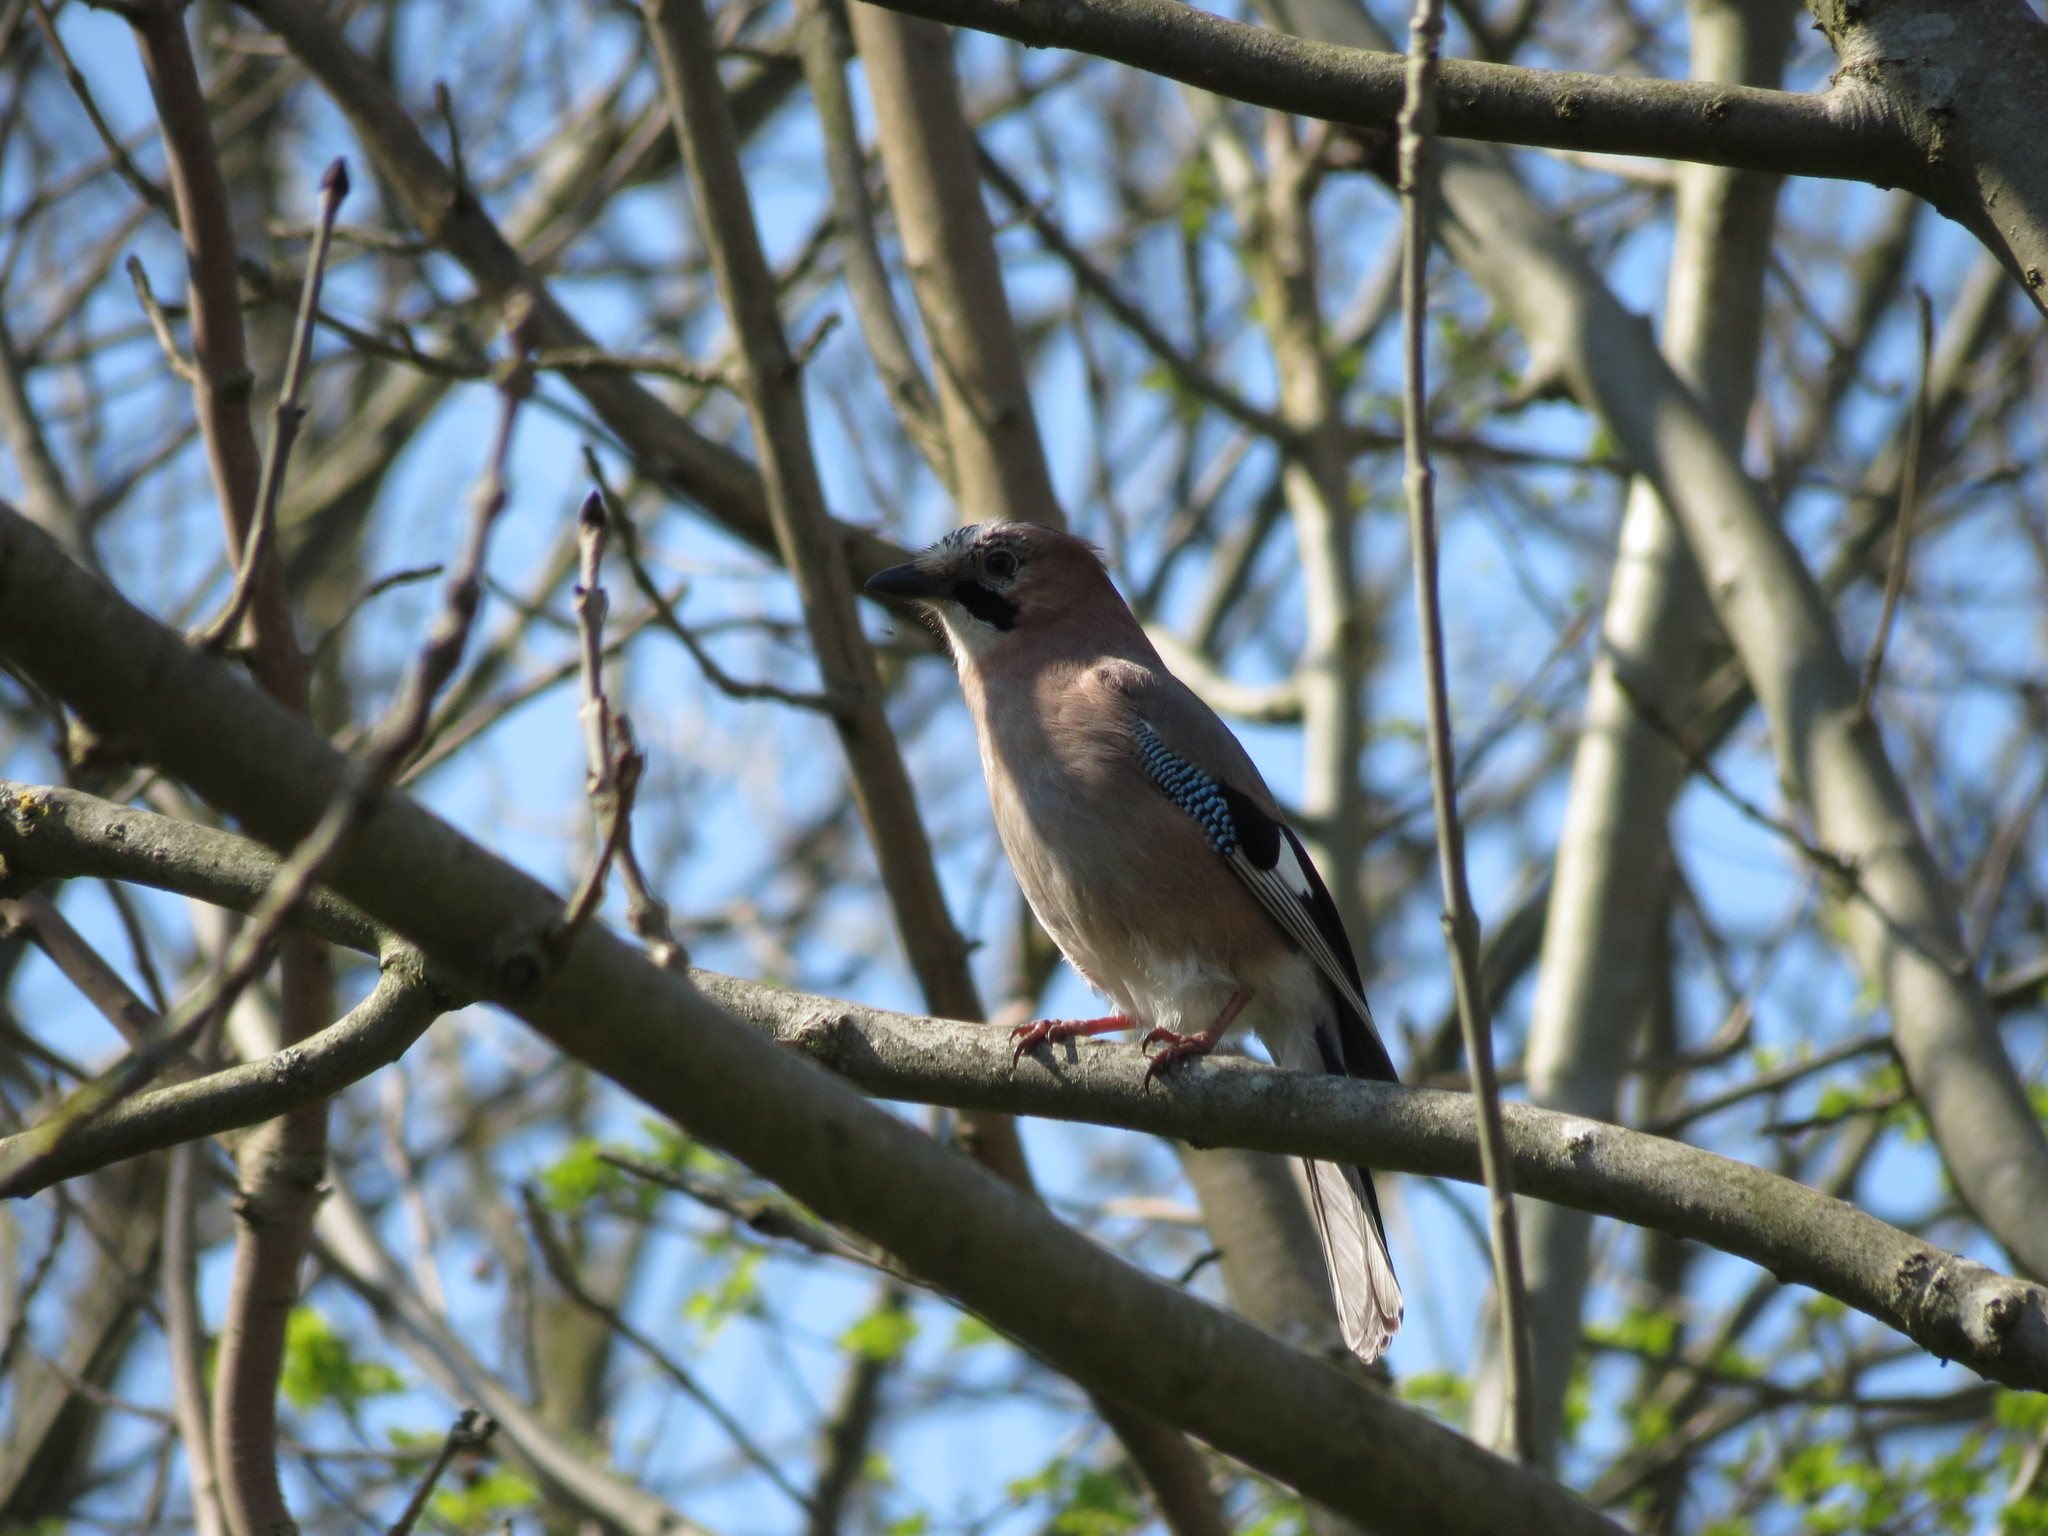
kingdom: Animalia
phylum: Chordata
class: Aves
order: Passeriformes
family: Corvidae
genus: Garrulus
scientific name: Garrulus glandarius
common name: Eurasian jay
